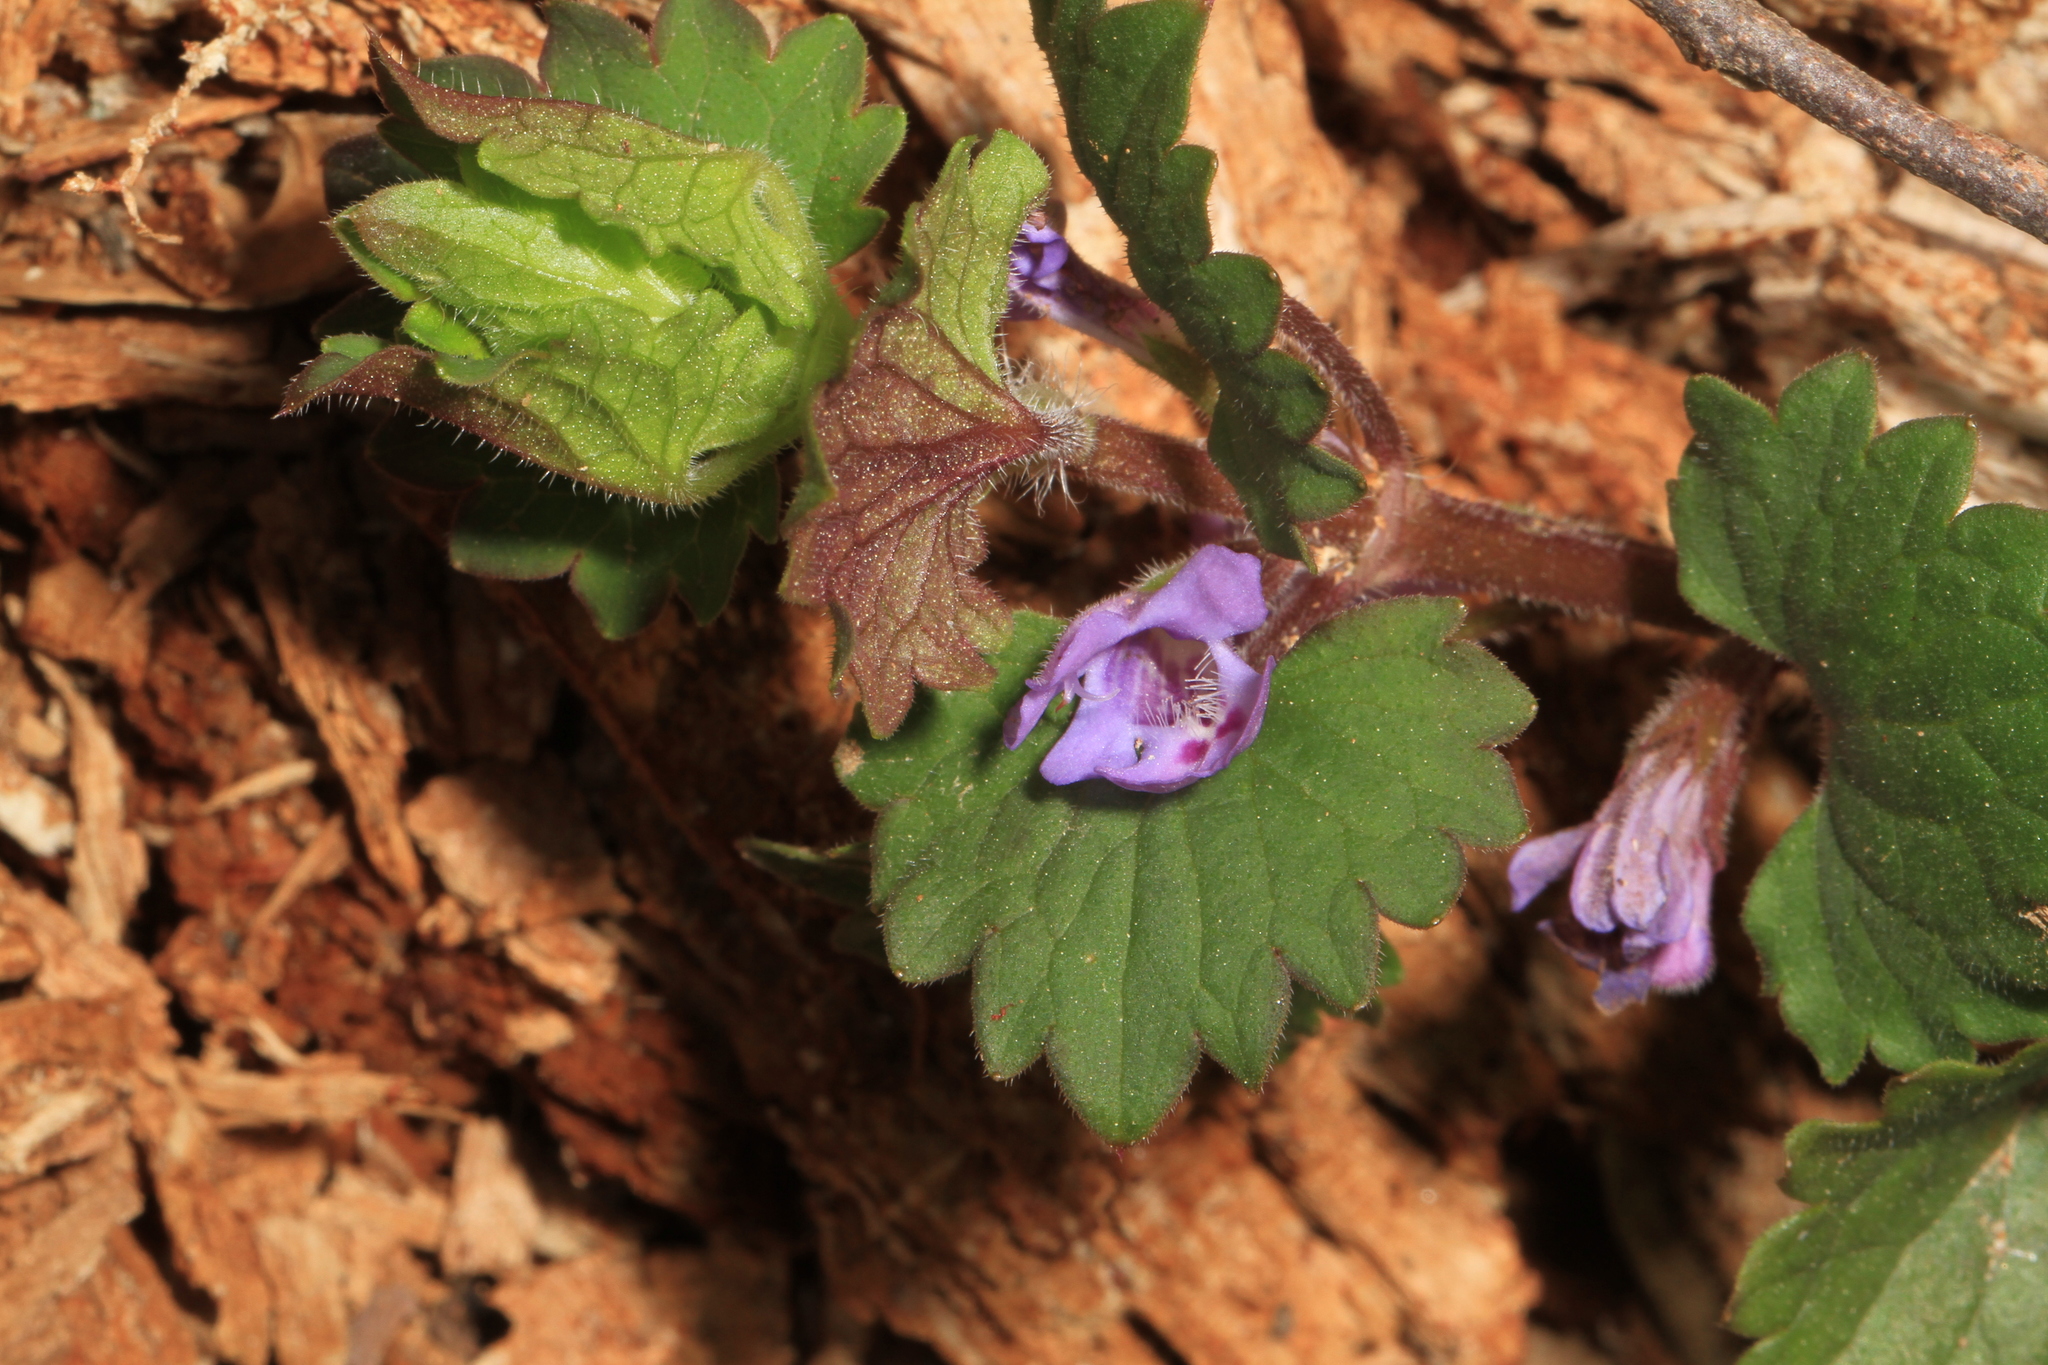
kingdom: Plantae
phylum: Tracheophyta
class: Magnoliopsida
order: Lamiales
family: Lamiaceae
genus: Glechoma
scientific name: Glechoma hederacea
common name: Ground ivy
